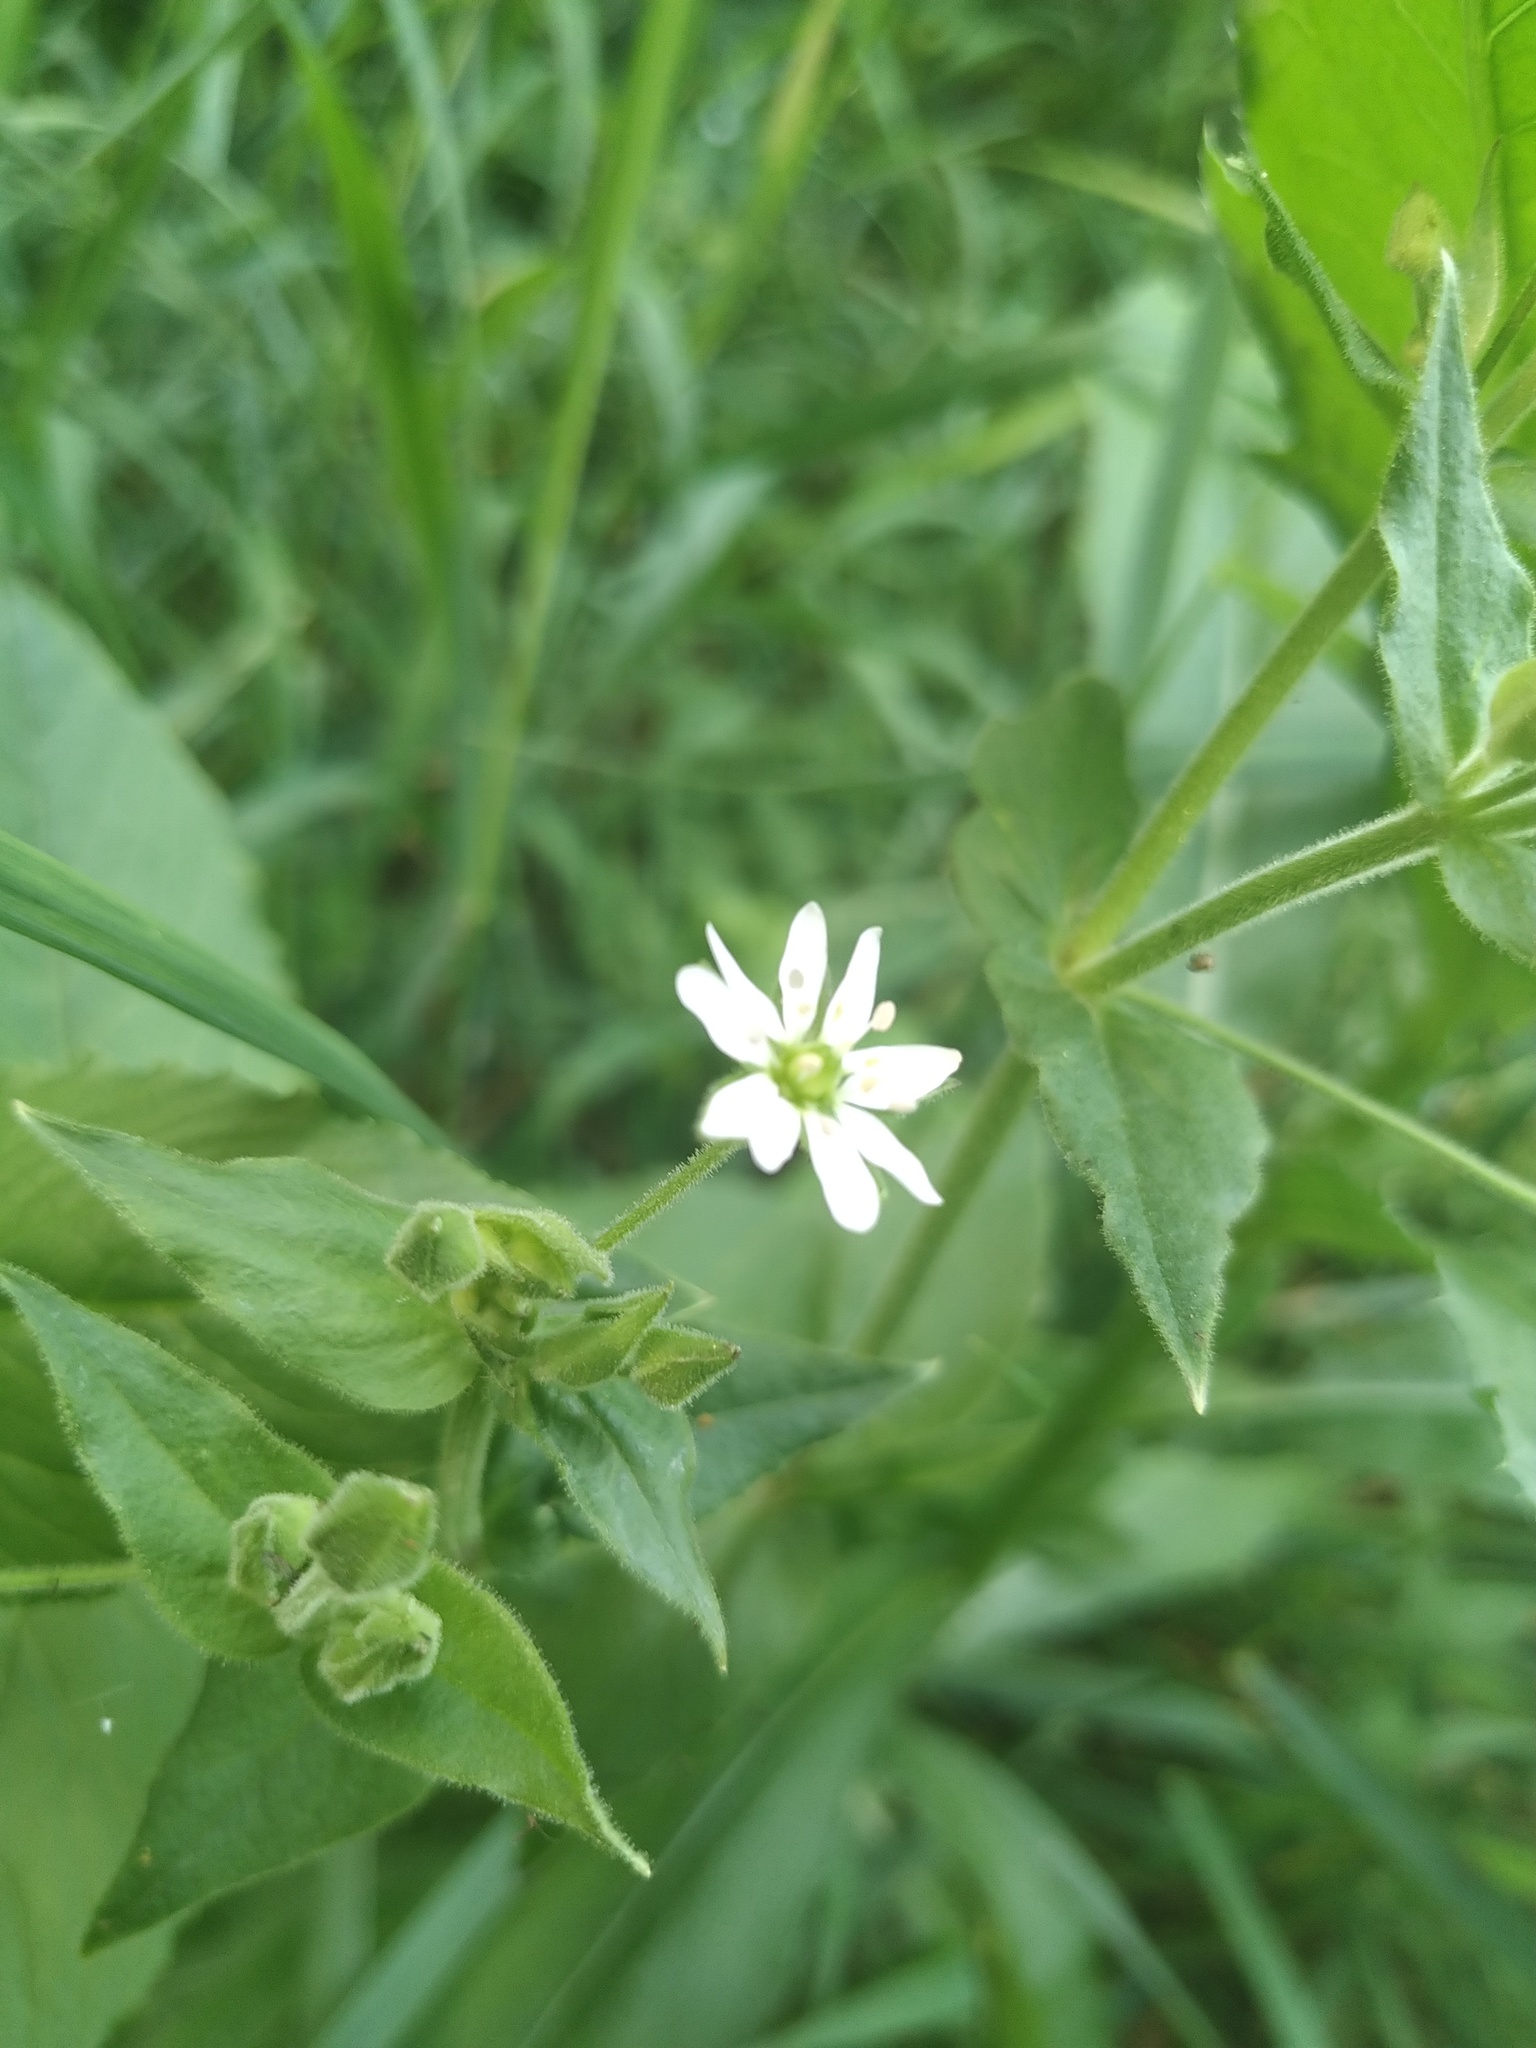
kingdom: Plantae
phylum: Tracheophyta
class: Magnoliopsida
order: Caryophyllales
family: Caryophyllaceae
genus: Stellaria
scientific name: Stellaria aquatica
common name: Water chickweed
